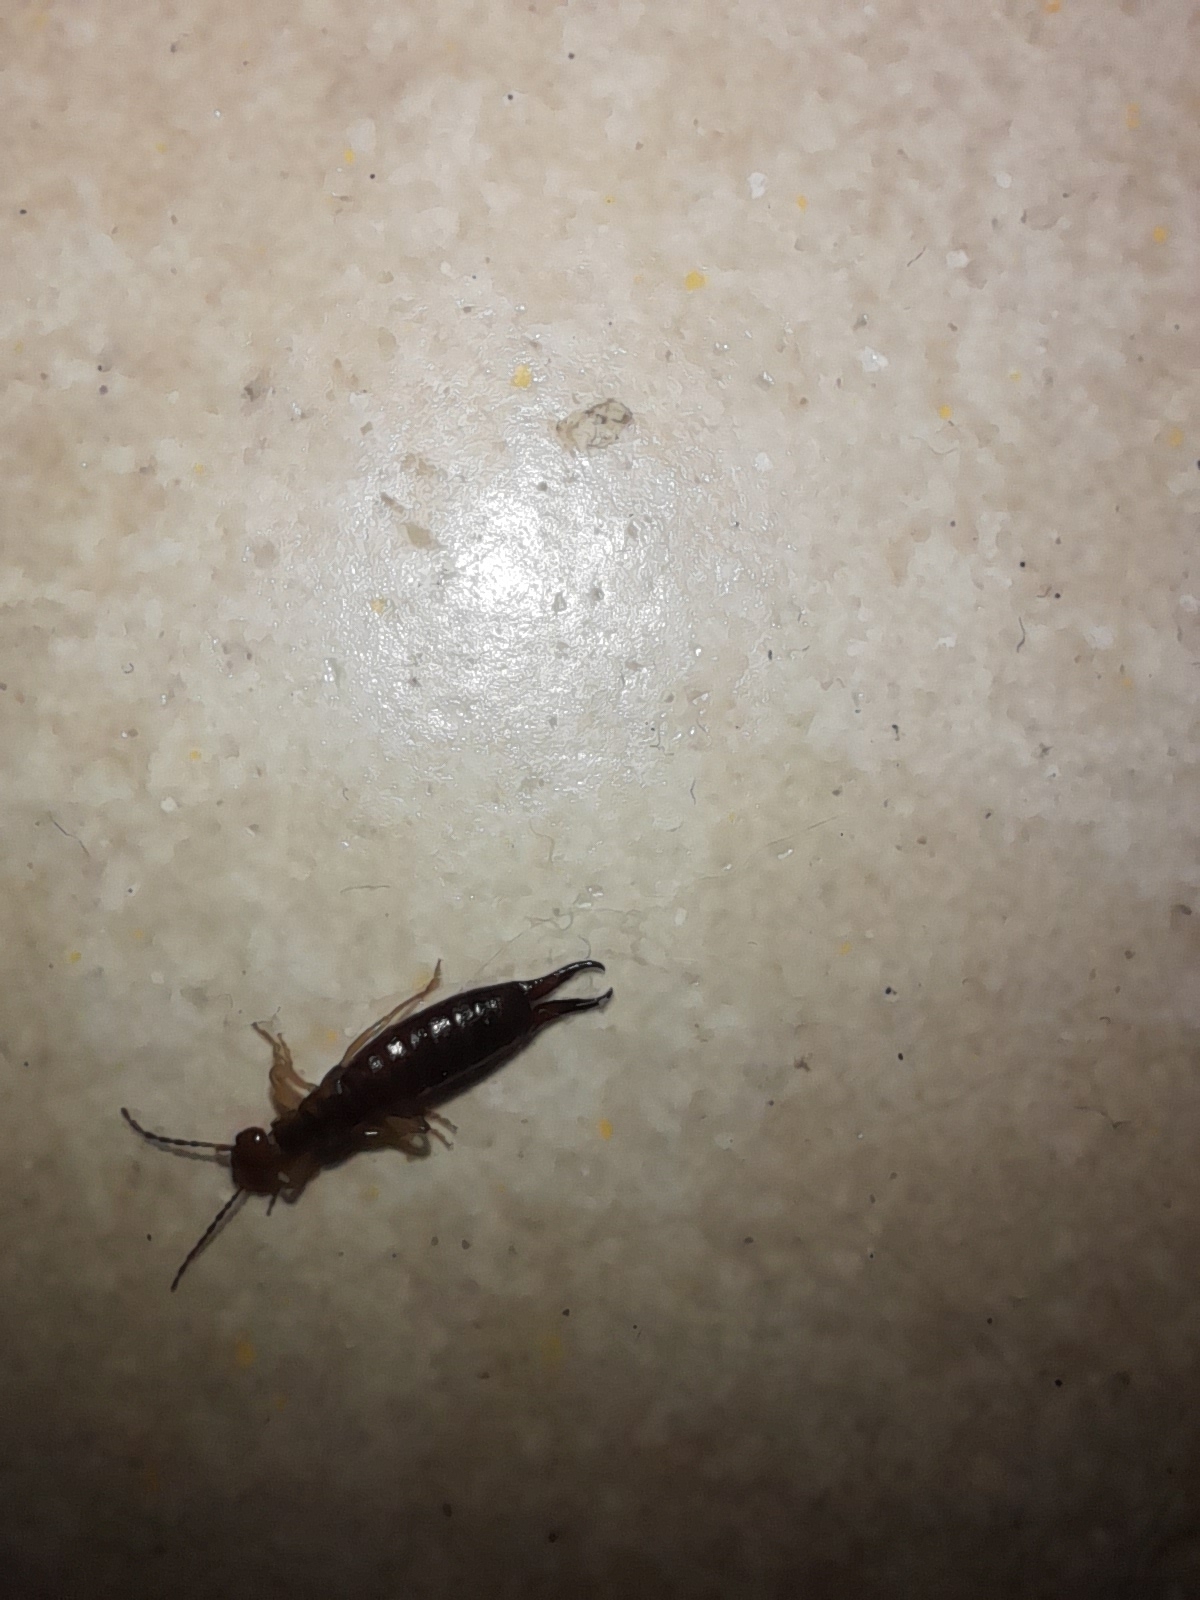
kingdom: Animalia
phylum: Arthropoda
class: Insecta
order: Dermaptera
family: Forficulidae
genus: Guanchia
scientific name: Guanchia pubescens
